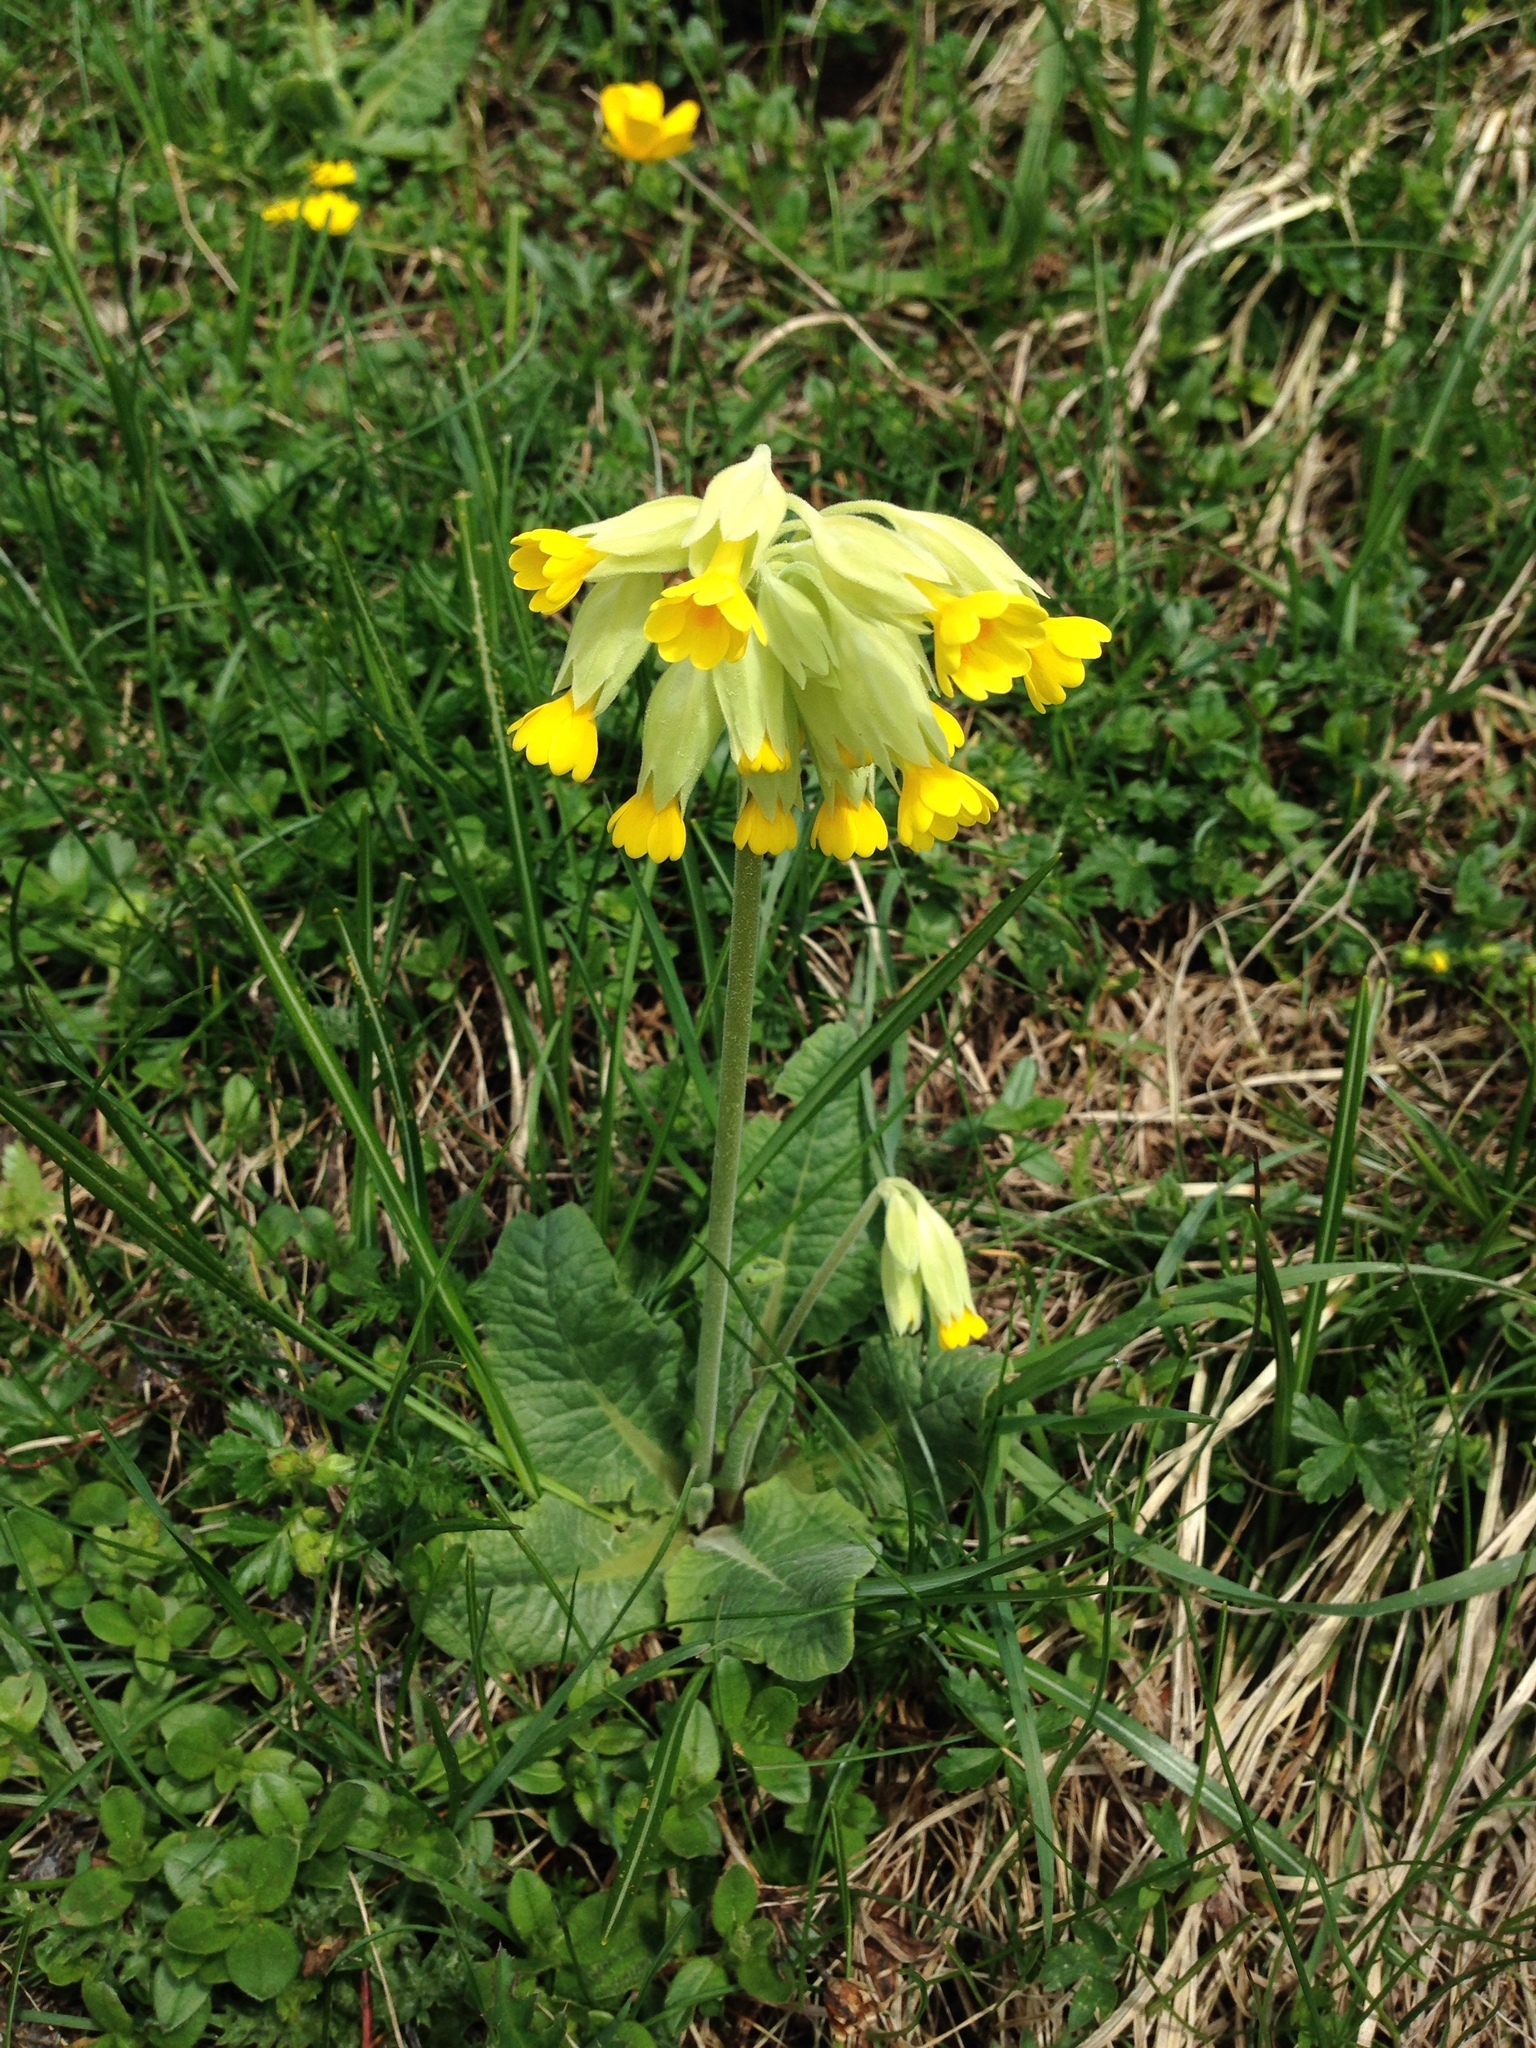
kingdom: Plantae
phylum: Tracheophyta
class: Magnoliopsida
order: Ericales
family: Primulaceae
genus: Primula
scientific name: Primula veris
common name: Cowslip
